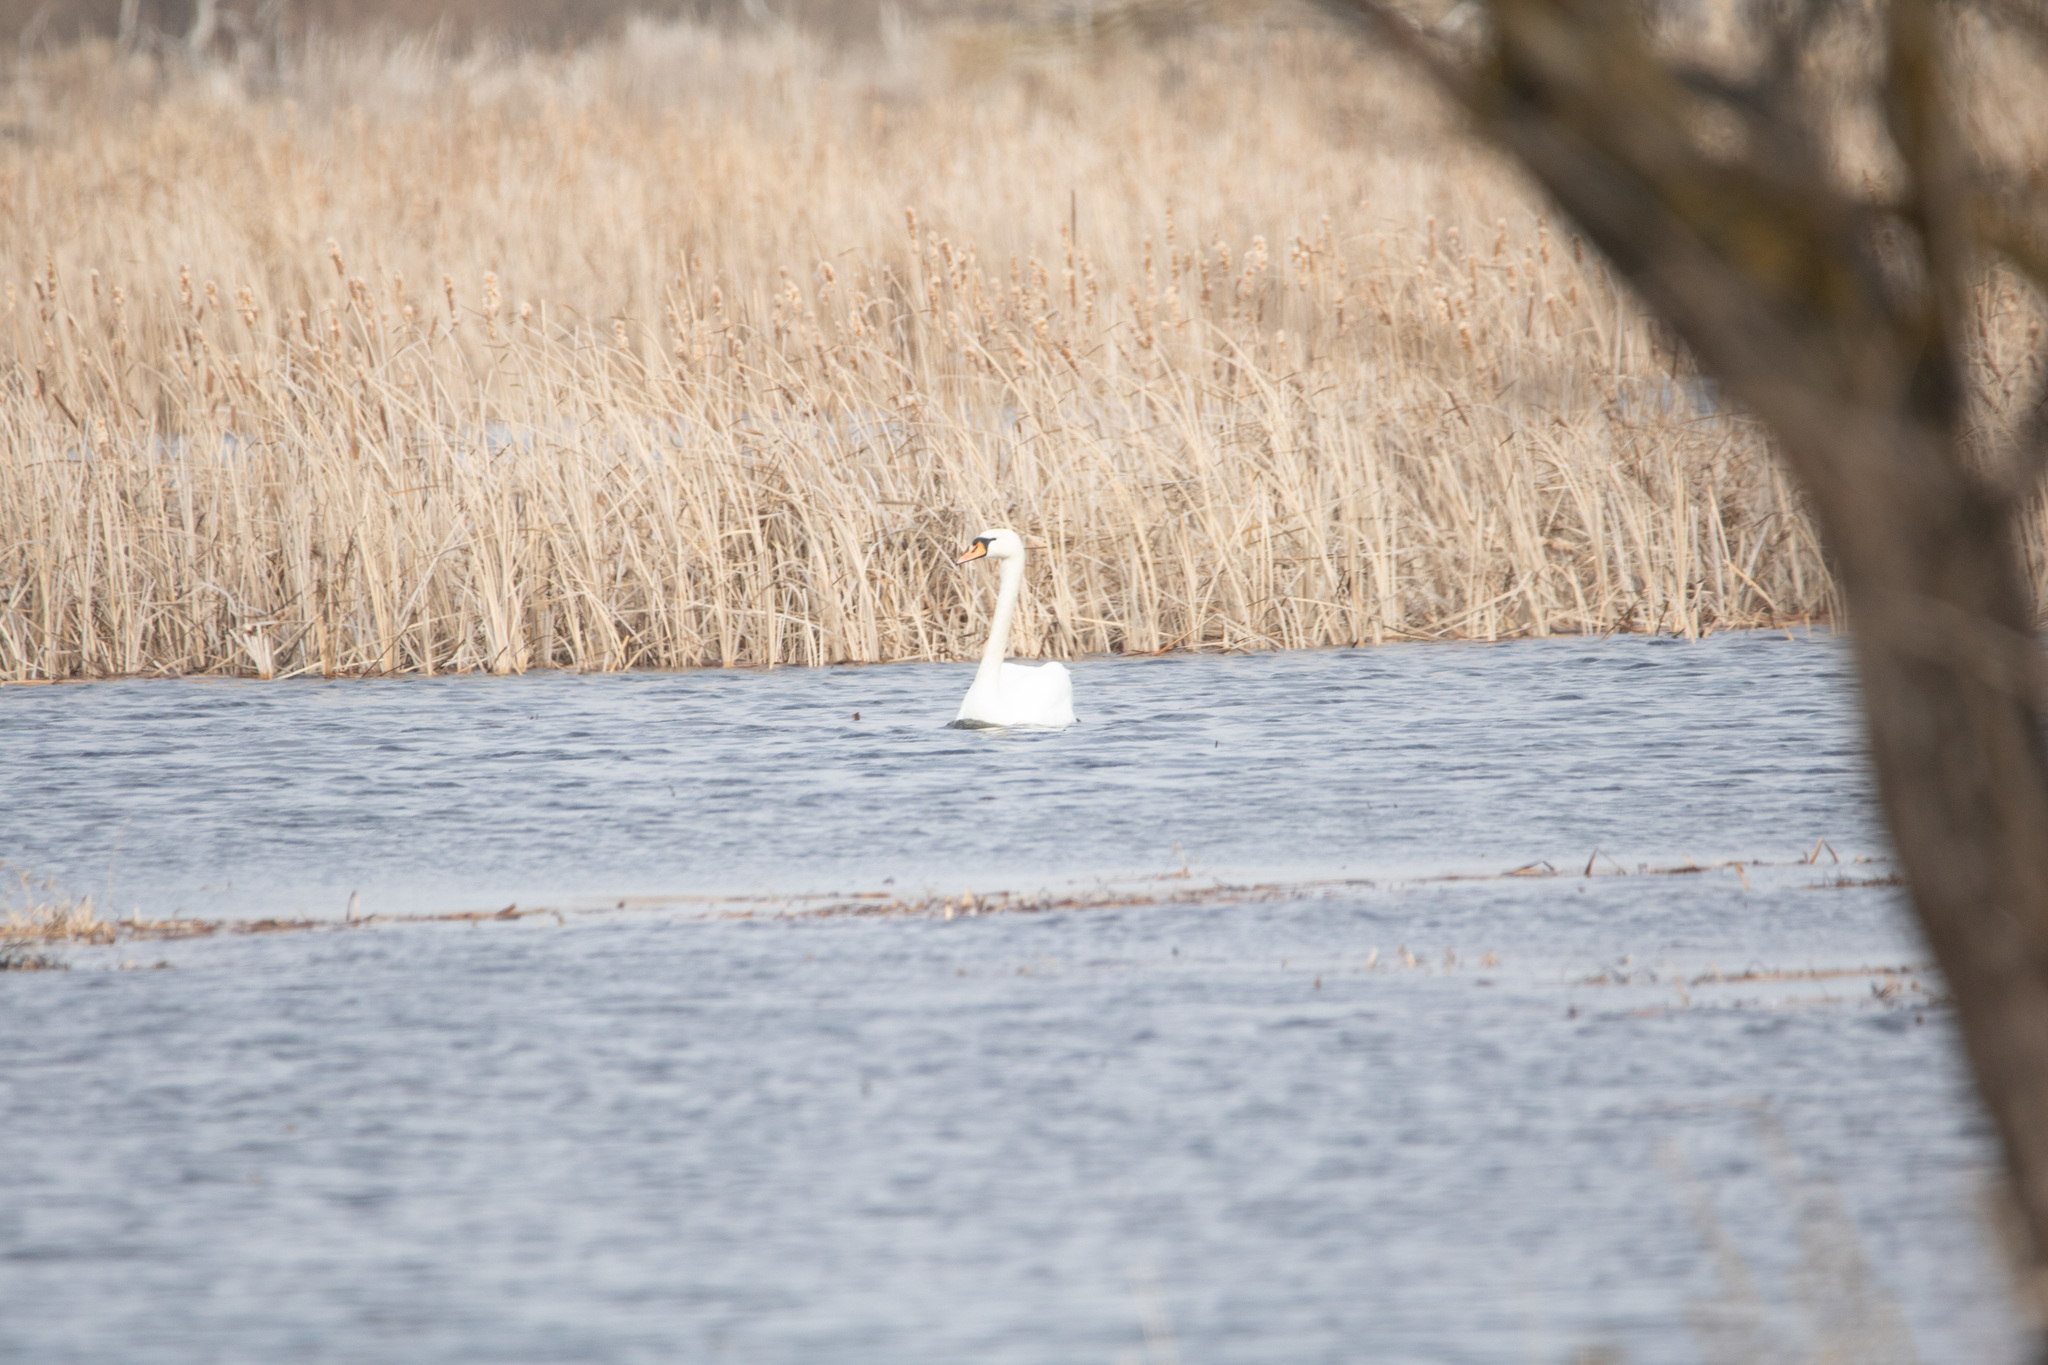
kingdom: Animalia
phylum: Chordata
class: Aves
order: Anseriformes
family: Anatidae
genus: Cygnus
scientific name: Cygnus olor
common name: Mute swan
